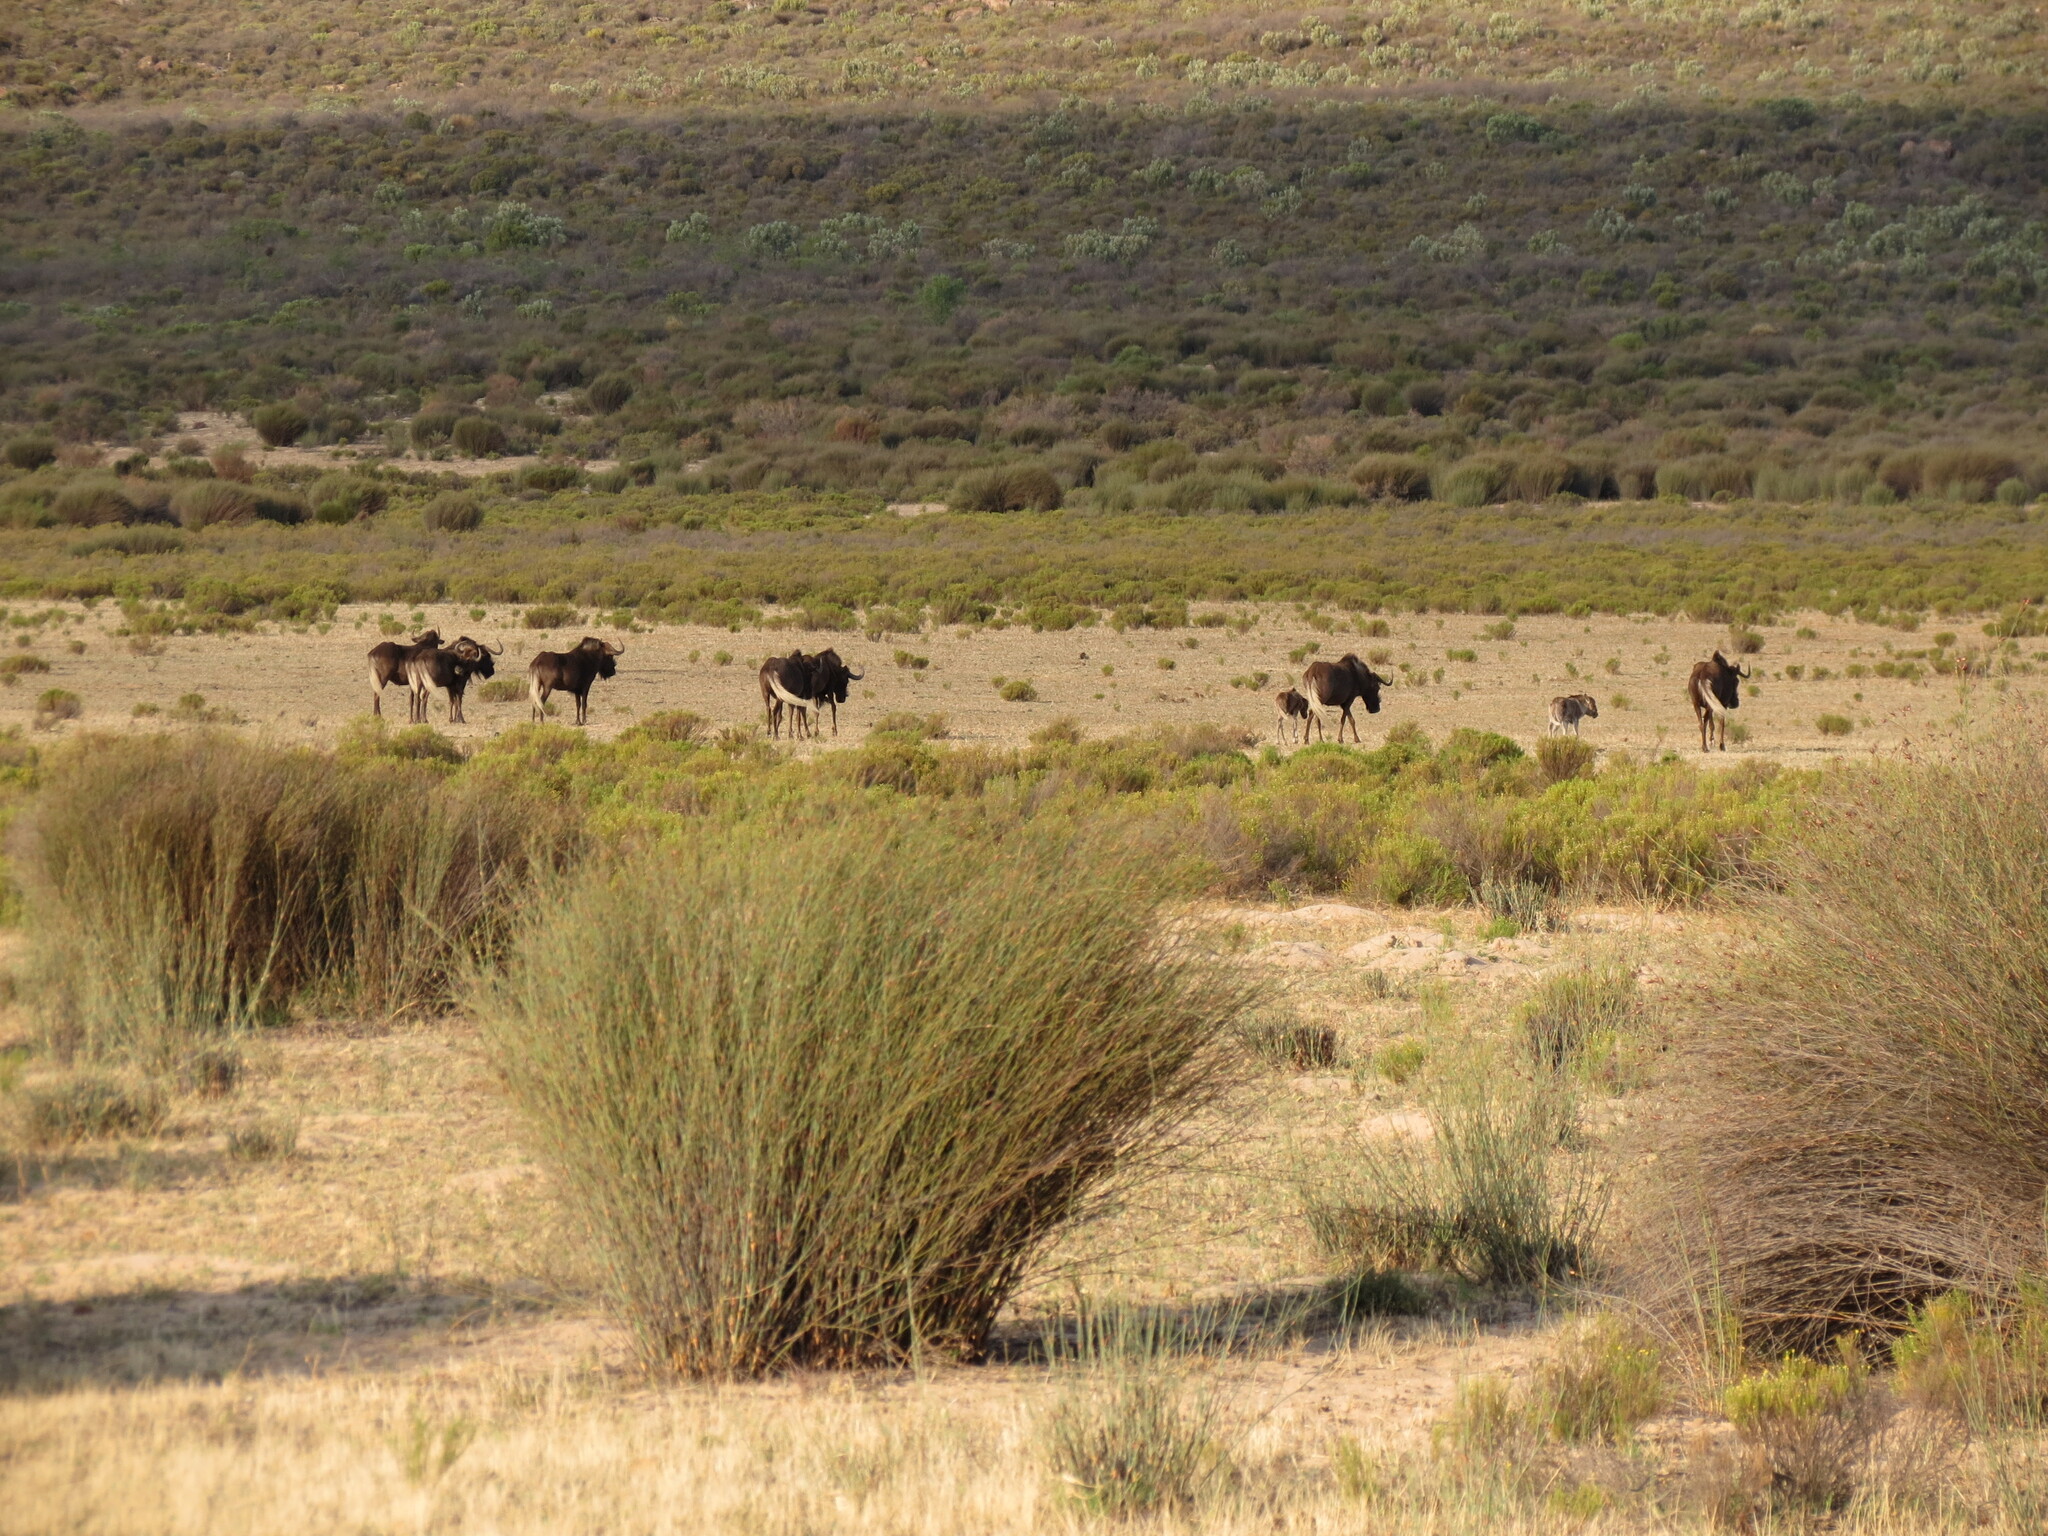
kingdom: Animalia
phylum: Chordata
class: Mammalia
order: Artiodactyla
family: Bovidae
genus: Connochaetes
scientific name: Connochaetes gnou
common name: Black wildebeest
